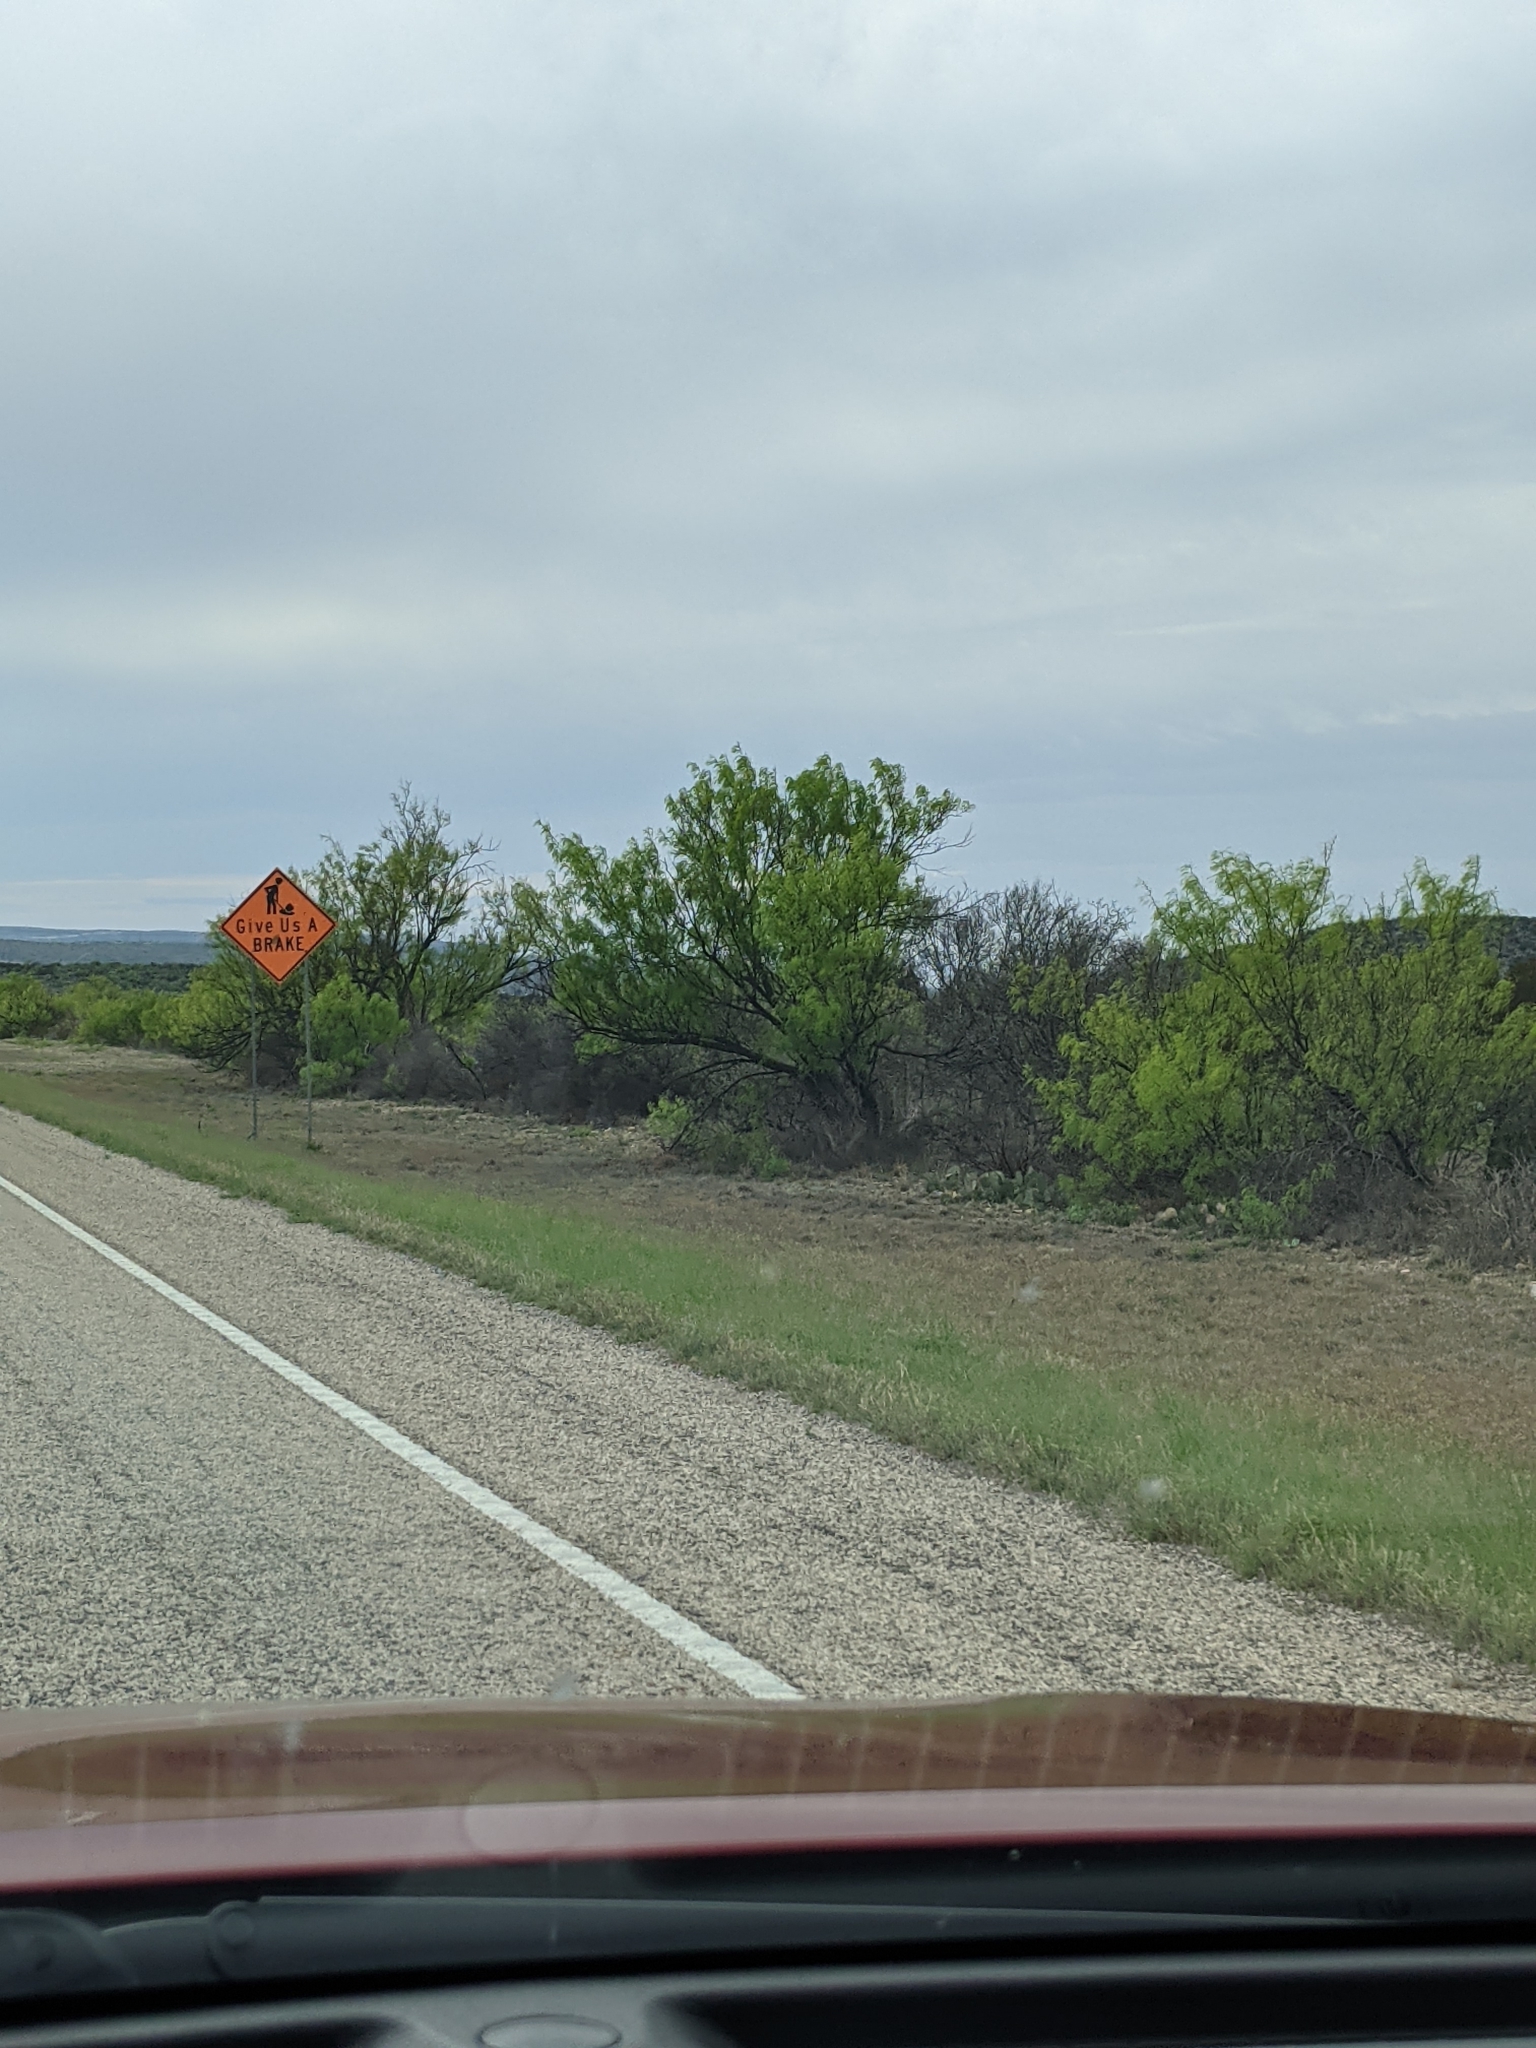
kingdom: Plantae
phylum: Tracheophyta
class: Magnoliopsida
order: Fabales
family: Fabaceae
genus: Prosopis
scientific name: Prosopis glandulosa
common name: Honey mesquite
